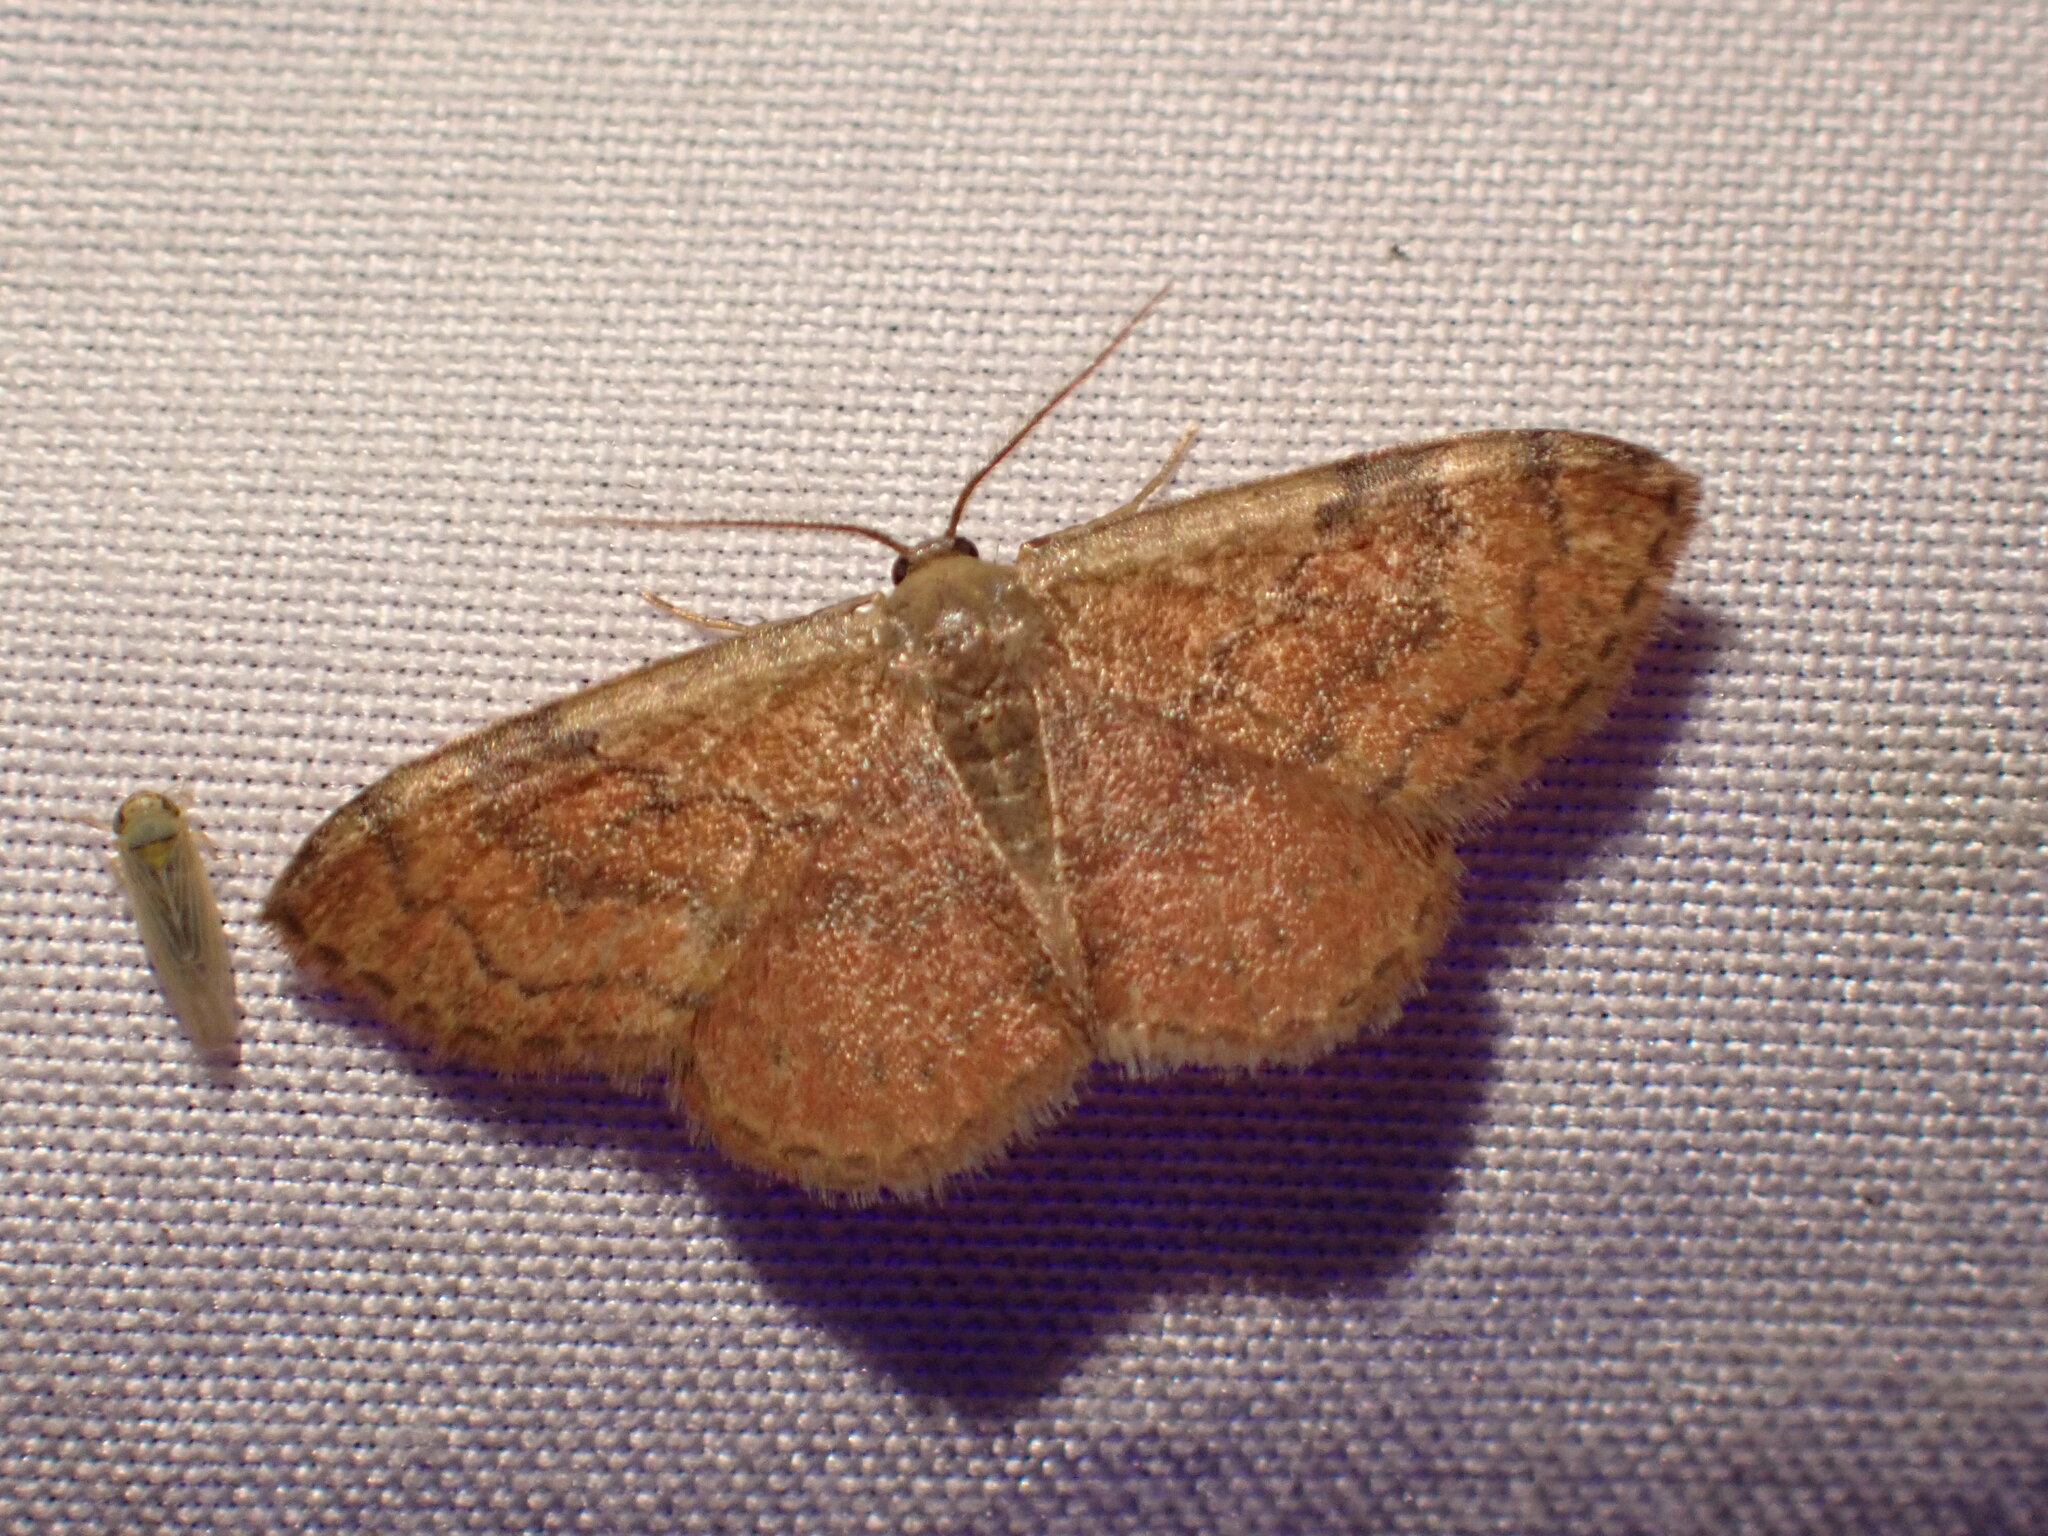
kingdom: Animalia
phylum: Arthropoda
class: Insecta
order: Lepidoptera
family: Geometridae
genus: Leptostales
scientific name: Leptostales ferruminaria
